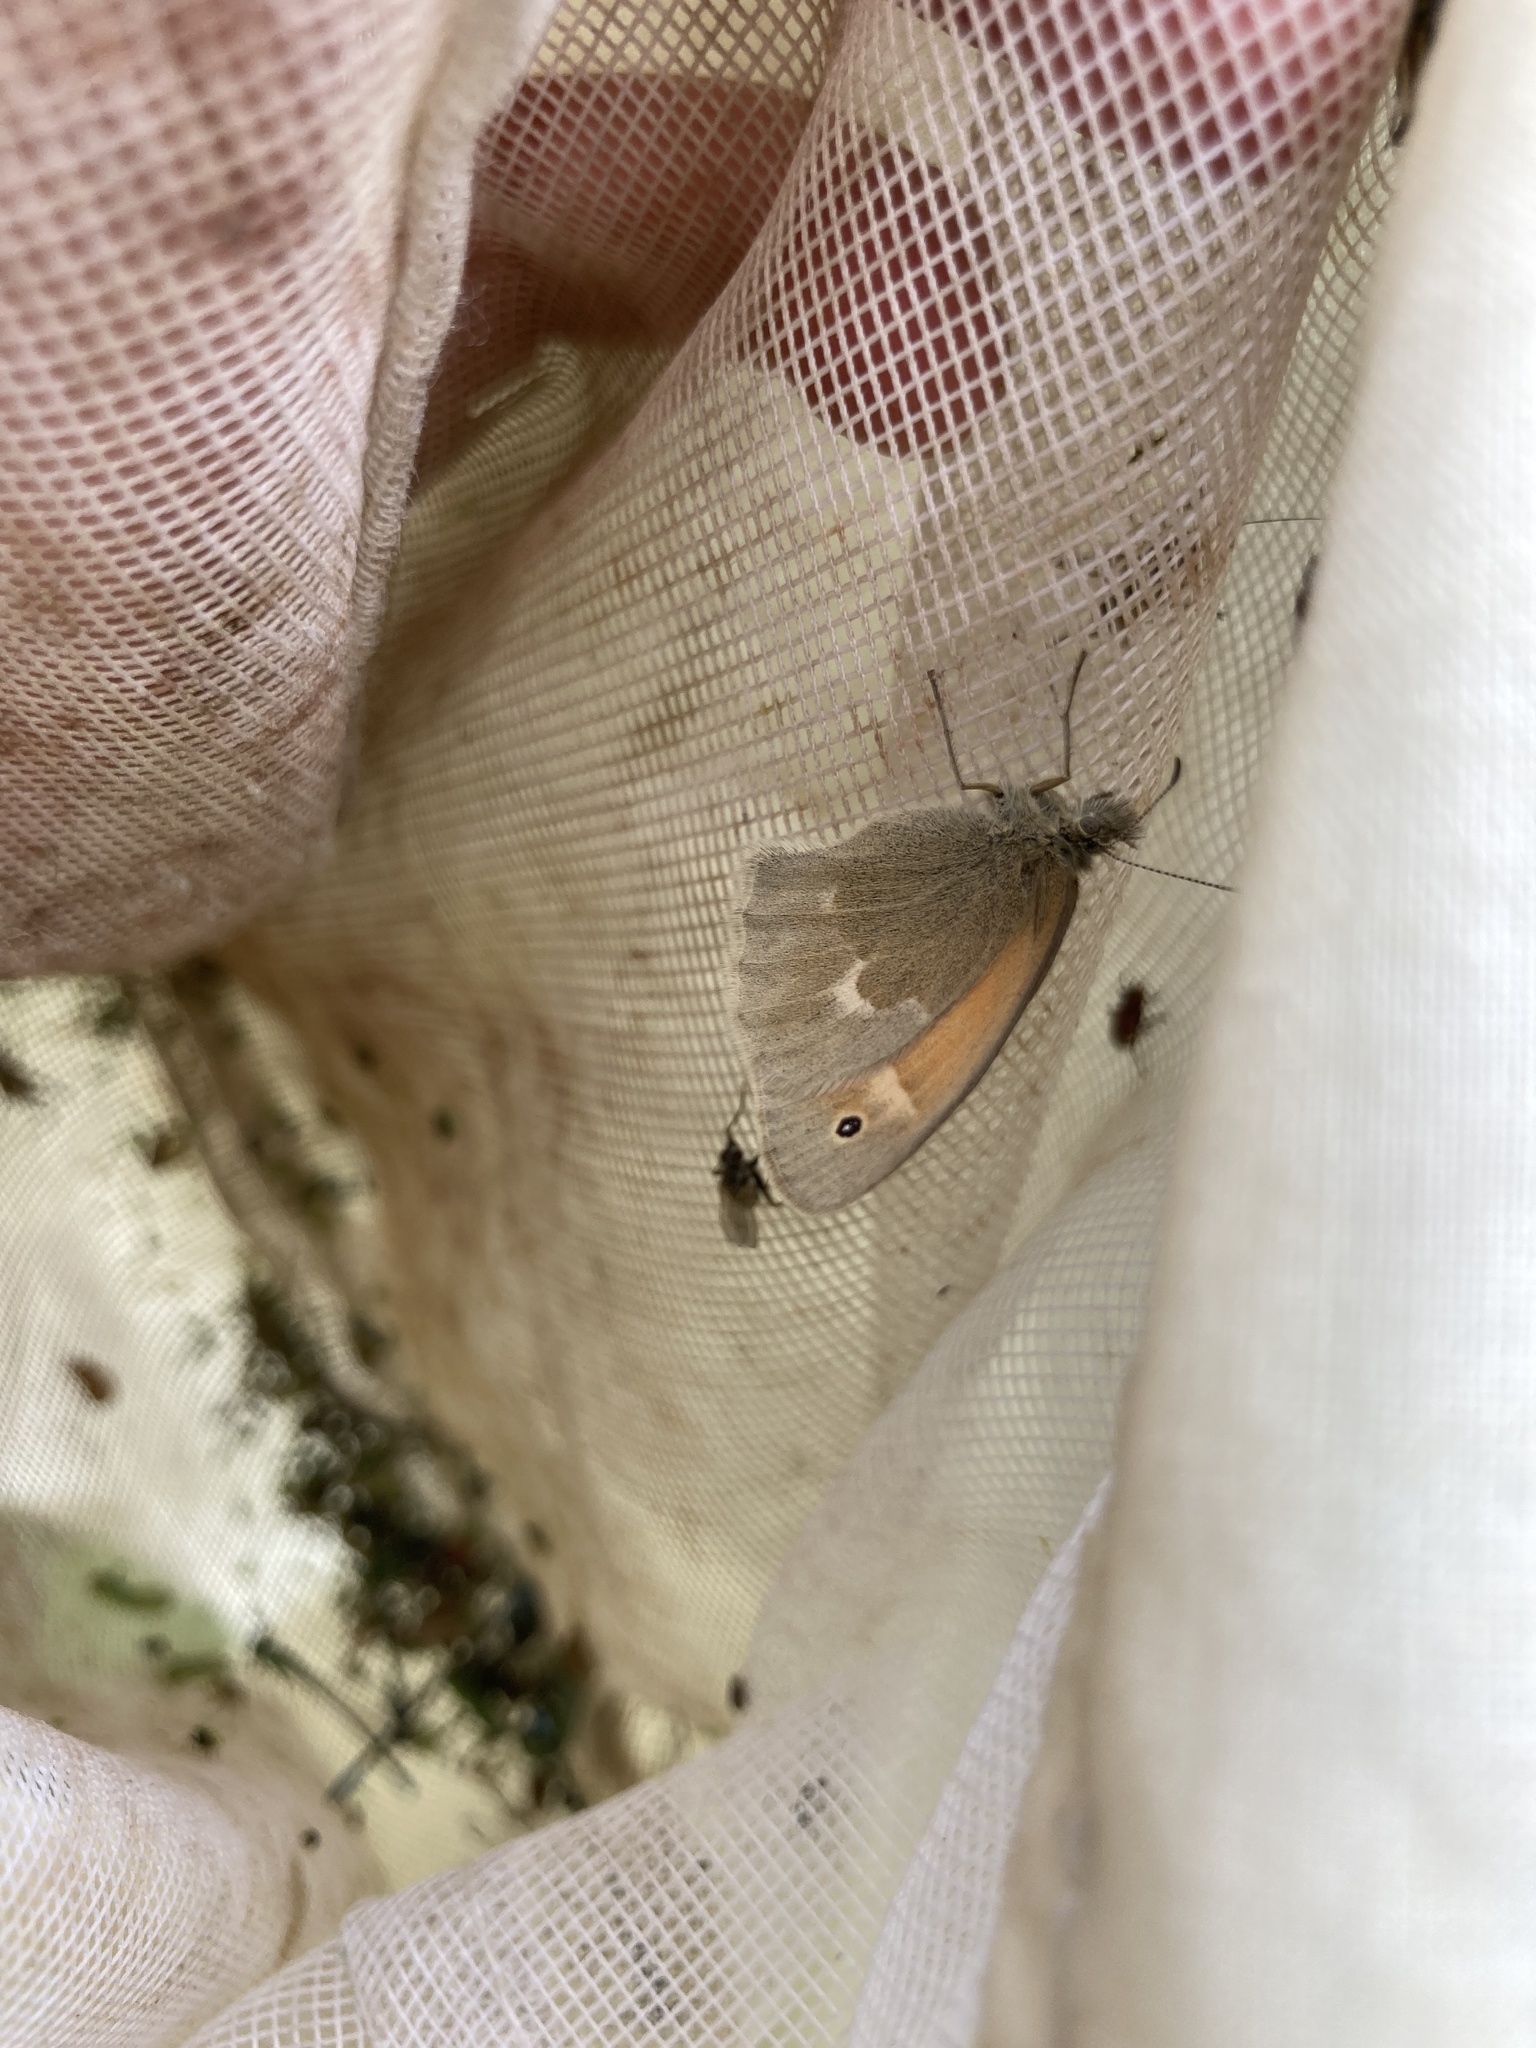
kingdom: Animalia
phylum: Arthropoda
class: Insecta
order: Lepidoptera
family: Nymphalidae
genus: Coenonympha
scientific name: Coenonympha california
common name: Common ringlet
